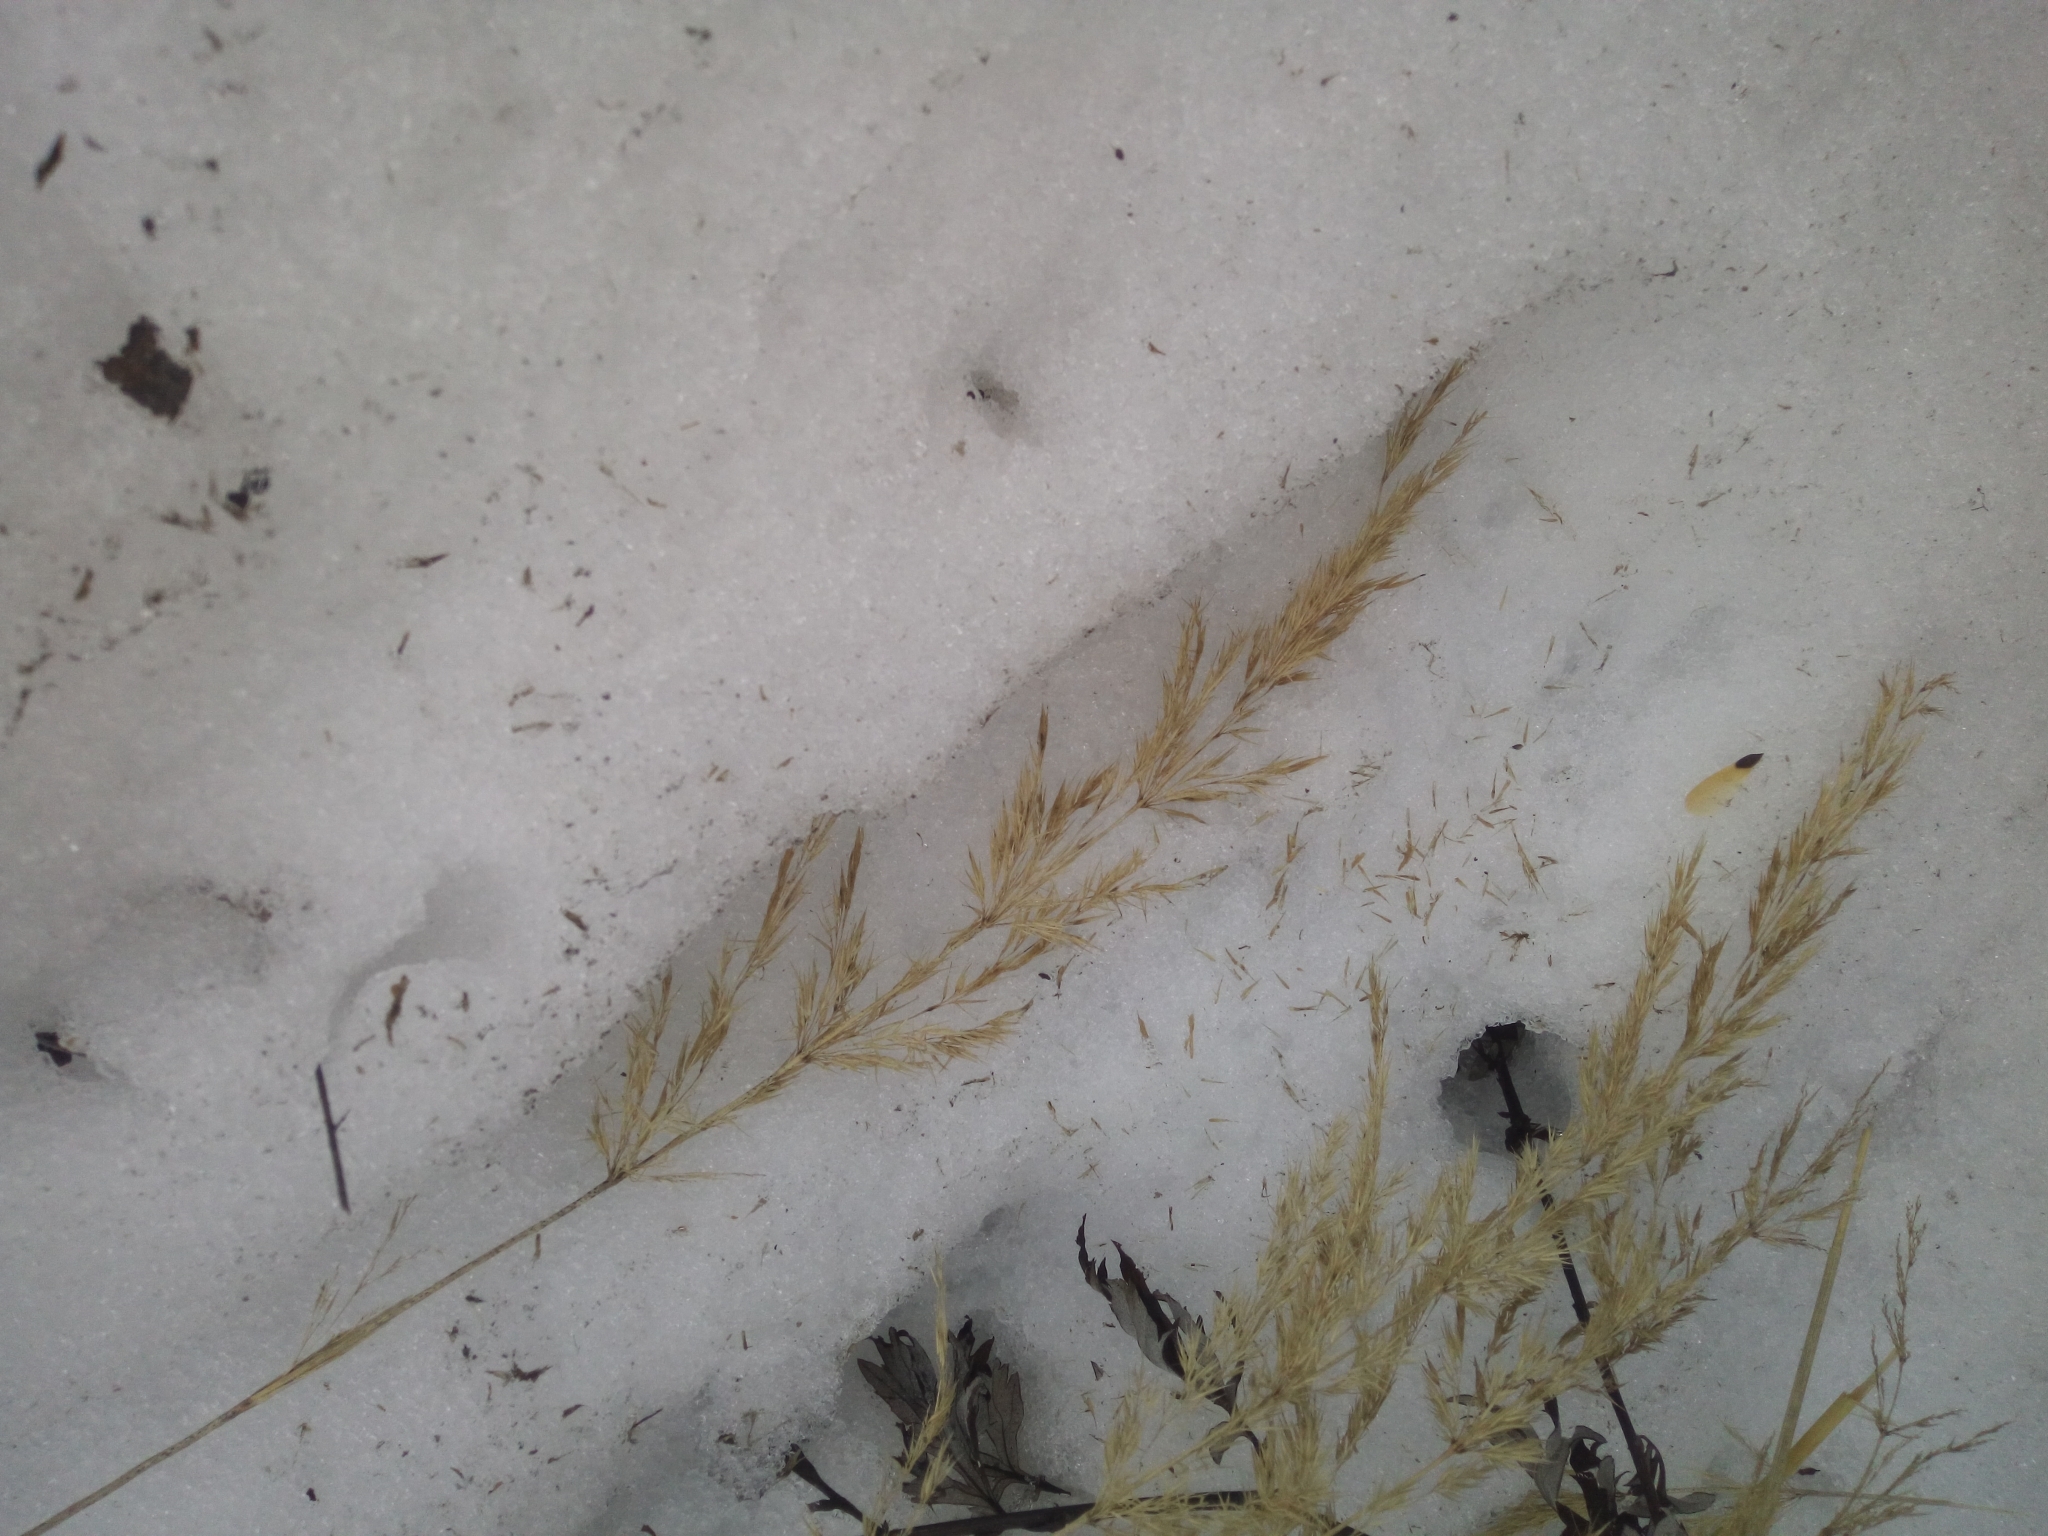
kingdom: Plantae
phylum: Tracheophyta
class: Liliopsida
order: Poales
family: Poaceae
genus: Calamagrostis
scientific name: Calamagrostis epigejos
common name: Wood small-reed
